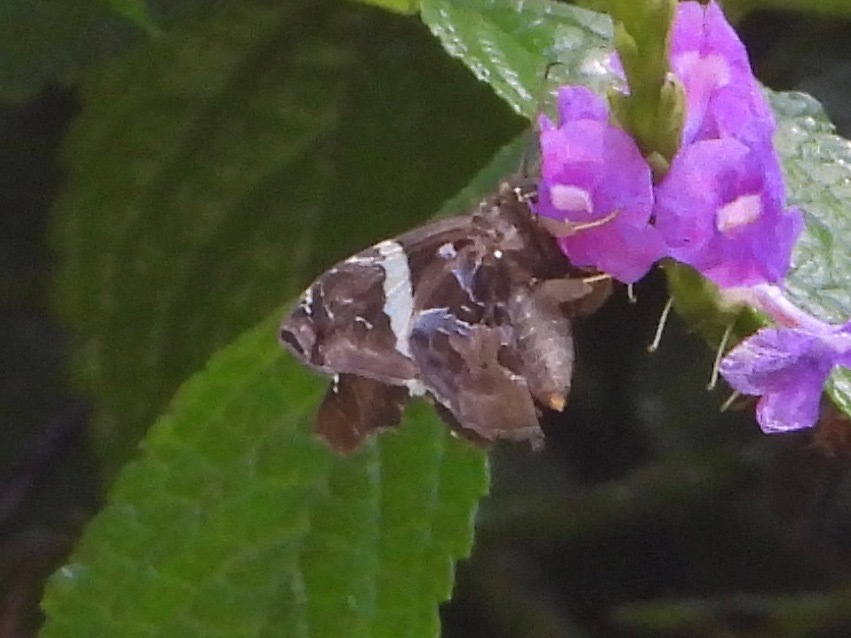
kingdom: Animalia
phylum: Arthropoda
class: Insecta
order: Lepidoptera
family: Hesperiidae
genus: Spathilepia
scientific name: Spathilepia clonius
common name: Falcate skipper
